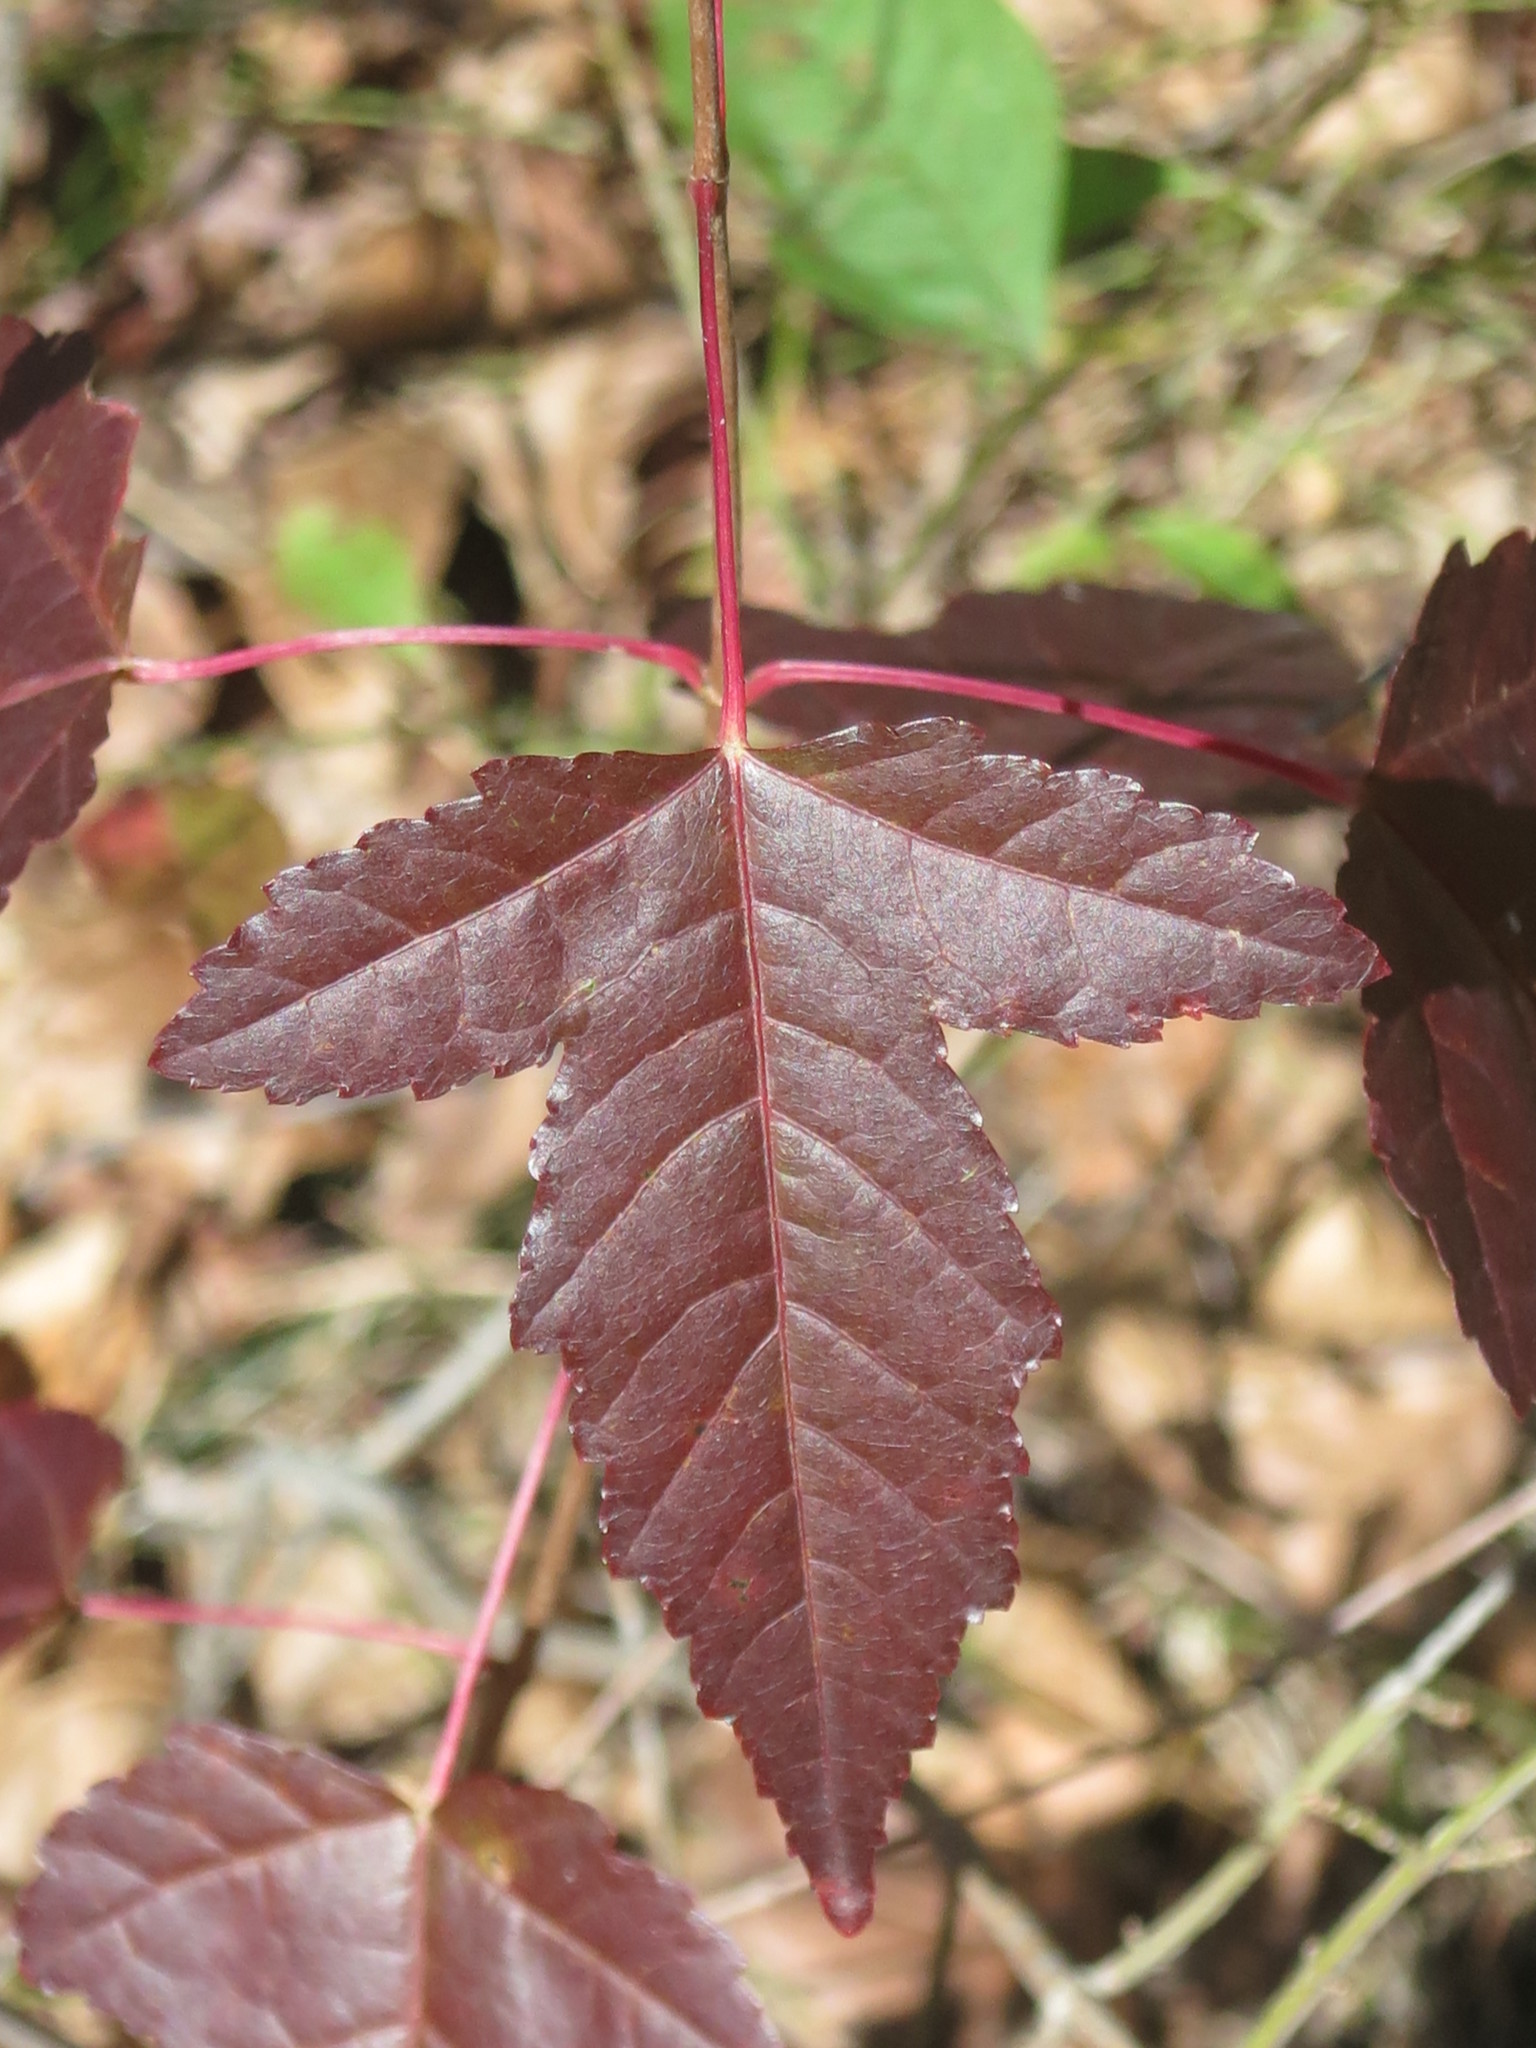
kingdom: Plantae
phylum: Tracheophyta
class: Magnoliopsida
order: Sapindales
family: Sapindaceae
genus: Acer
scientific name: Acer tataricum
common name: Tartar maple
